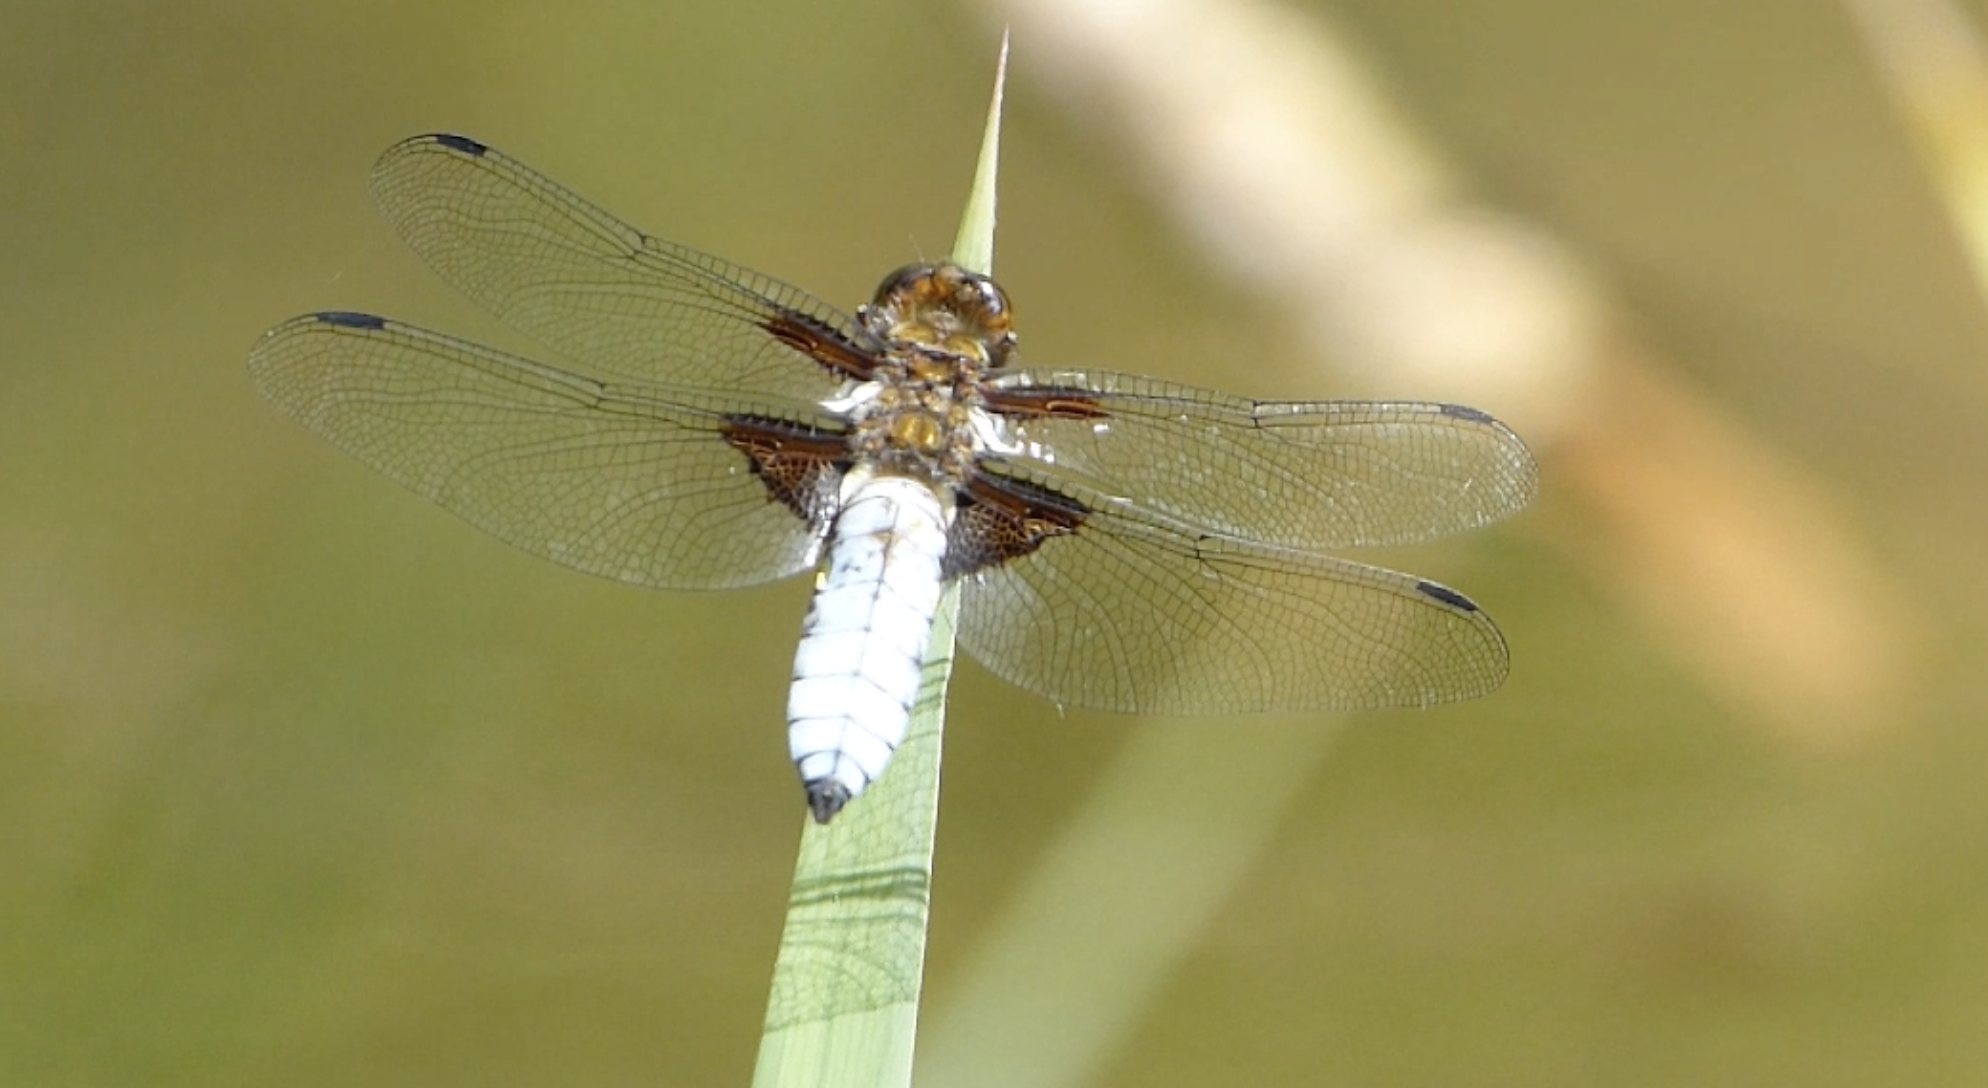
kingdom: Animalia
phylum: Arthropoda
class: Insecta
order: Odonata
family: Libellulidae
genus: Libellula
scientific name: Libellula depressa
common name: Broad-bodied chaser
